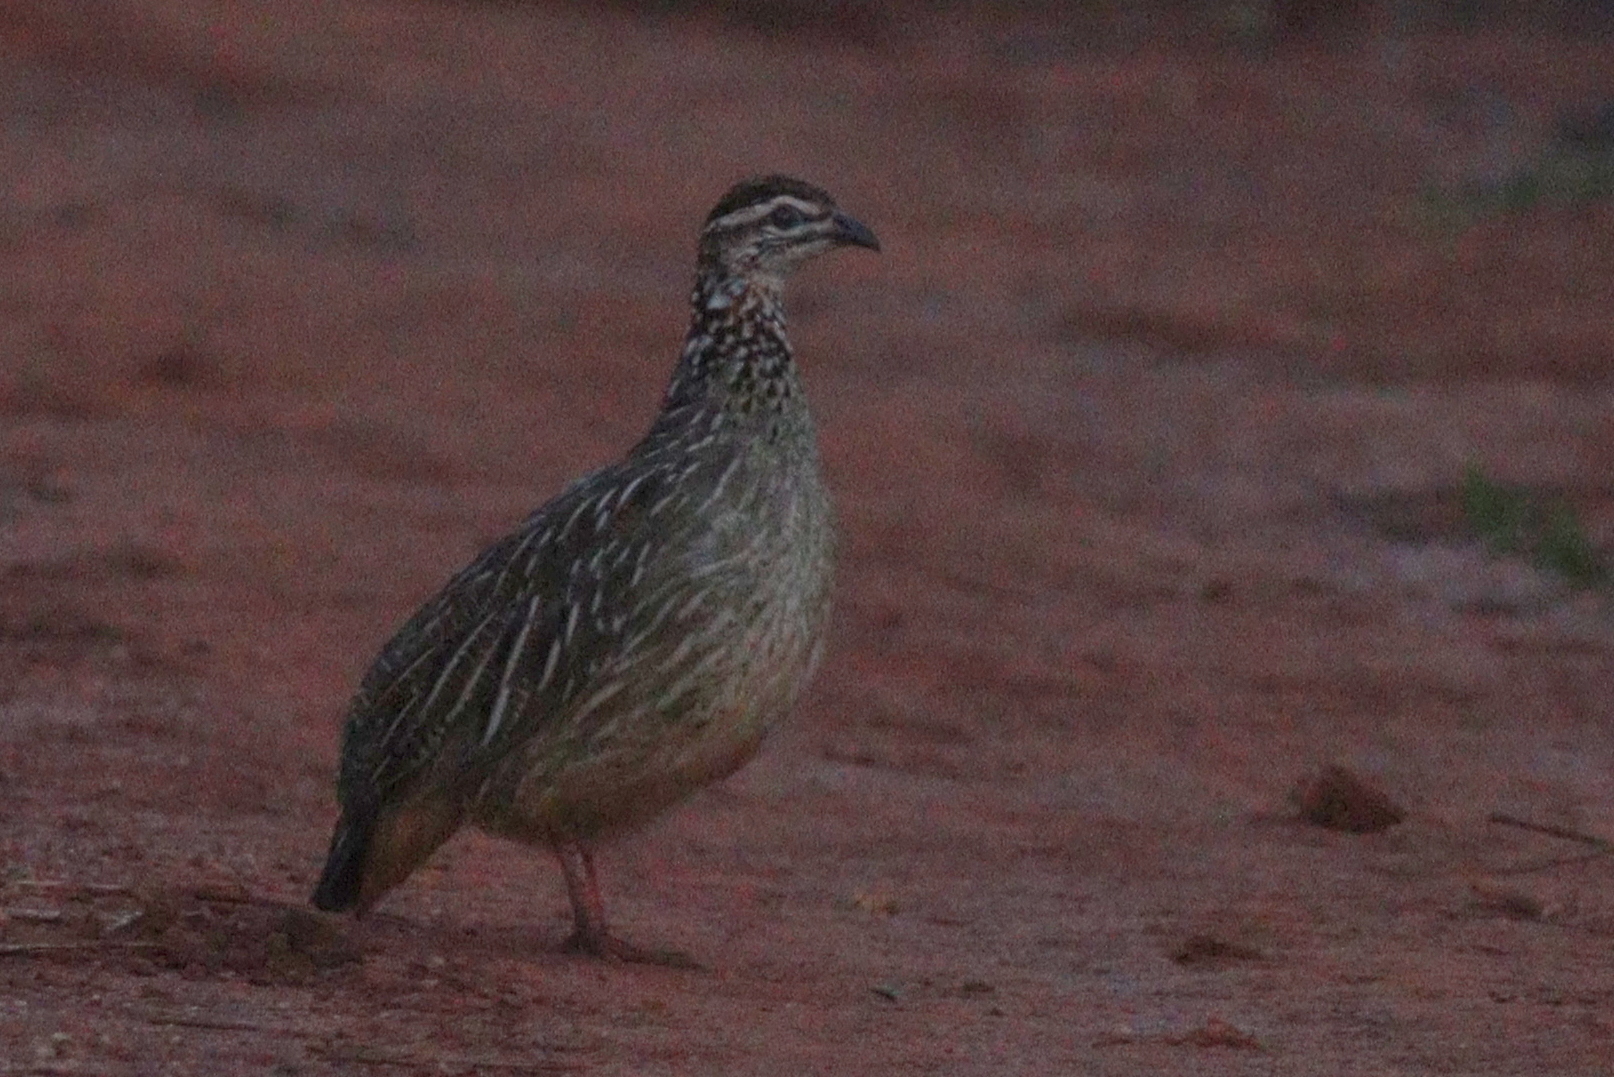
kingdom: Animalia
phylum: Chordata
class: Aves
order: Galliformes
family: Phasianidae
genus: Ortygornis
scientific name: Ortygornis sephaena
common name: Crested francolin
